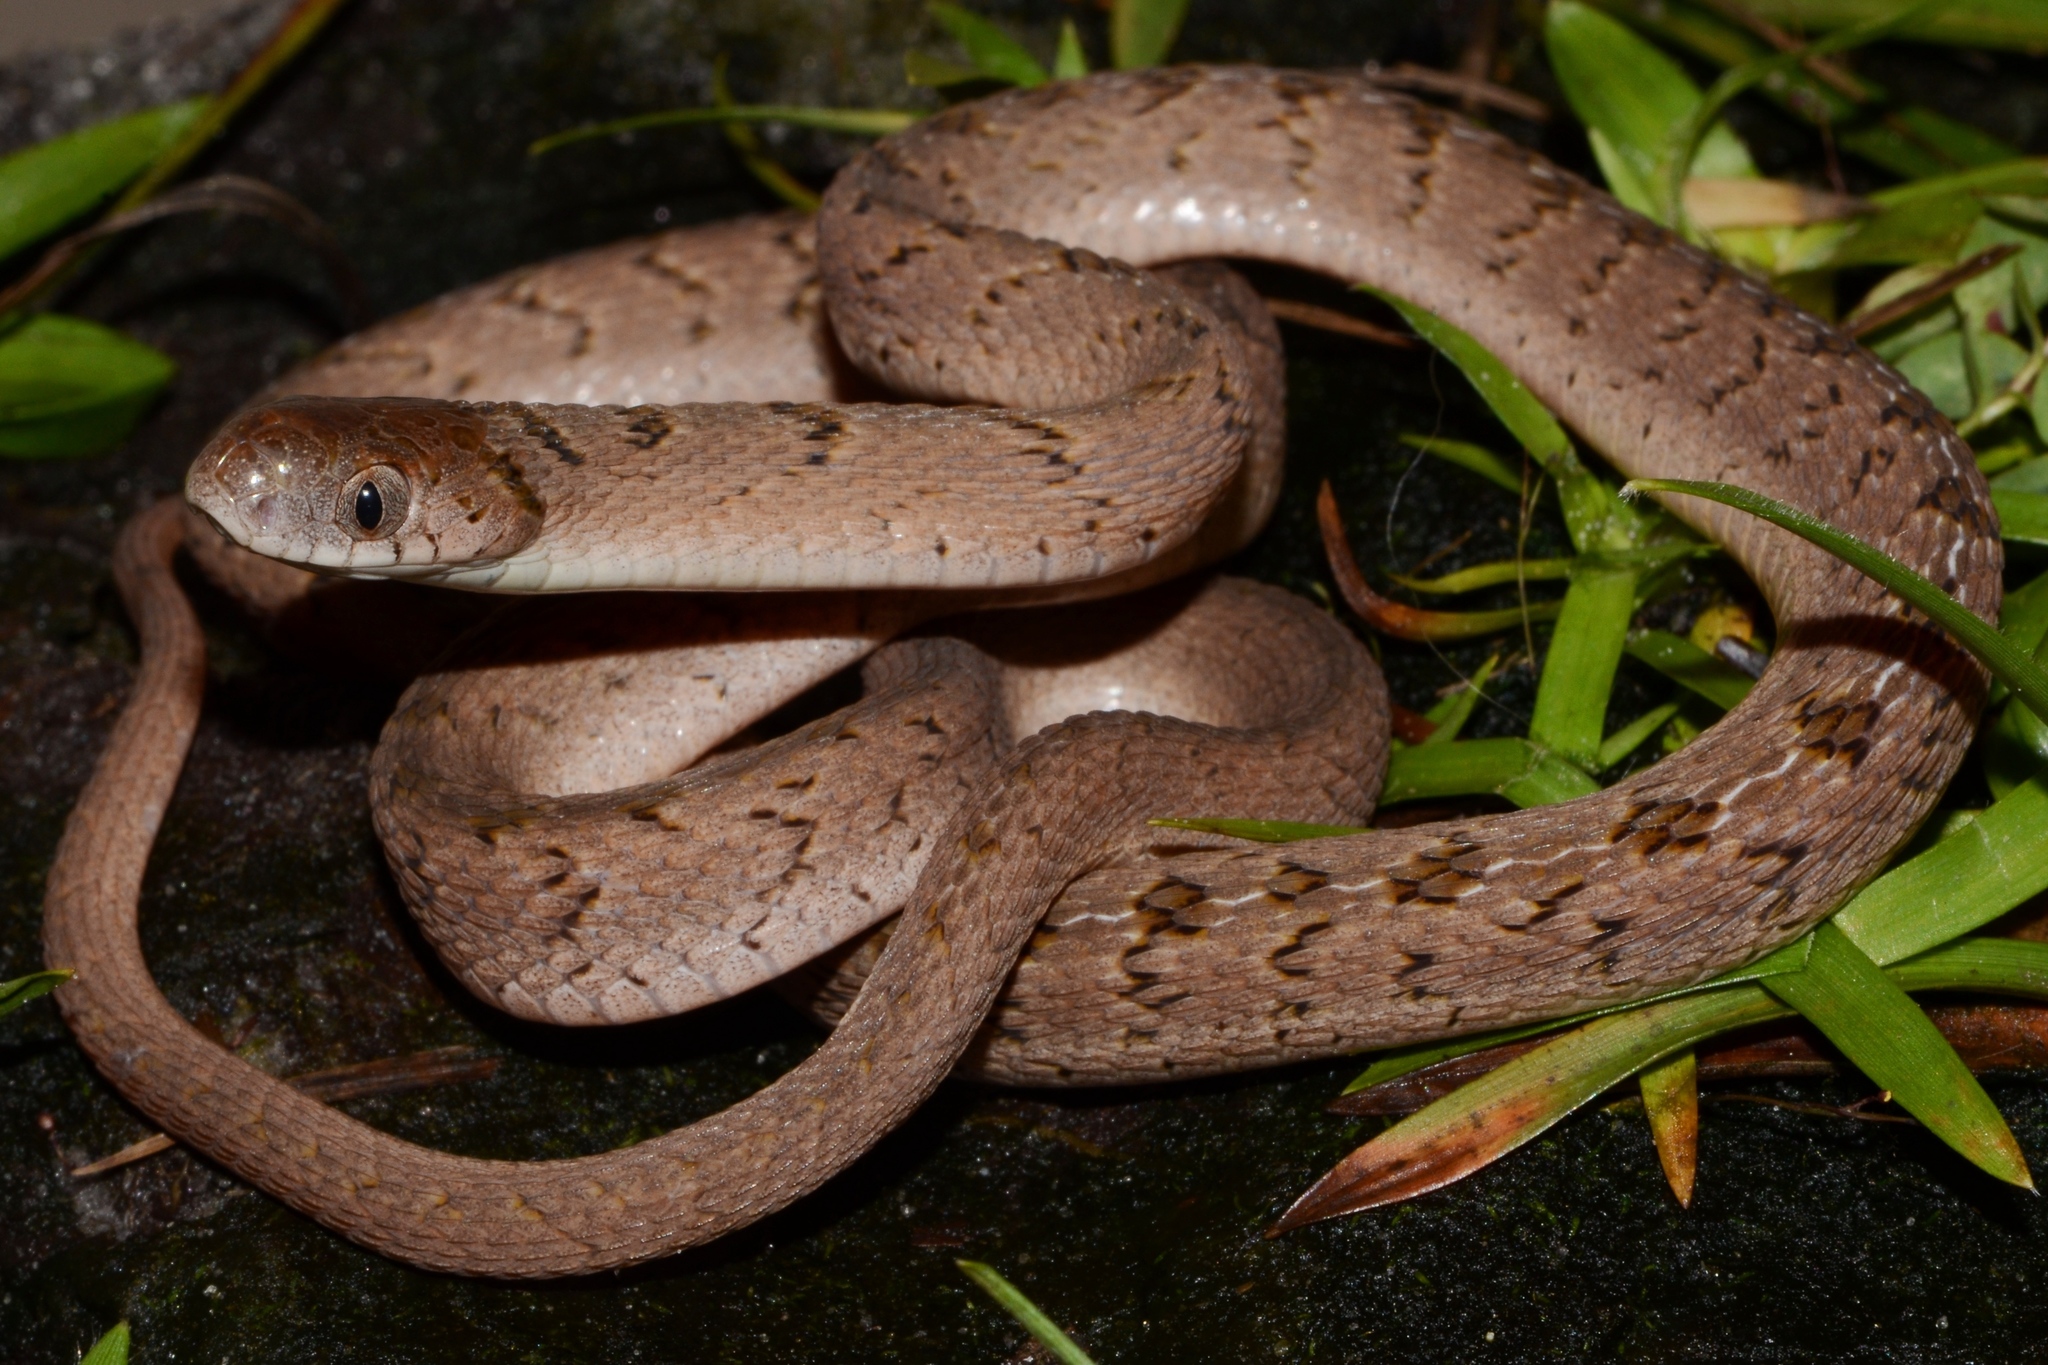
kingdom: Animalia
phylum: Chordata
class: Squamata
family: Colubridae
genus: Dasypeltis
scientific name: Dasypeltis palmarum
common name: Palm egg eater
